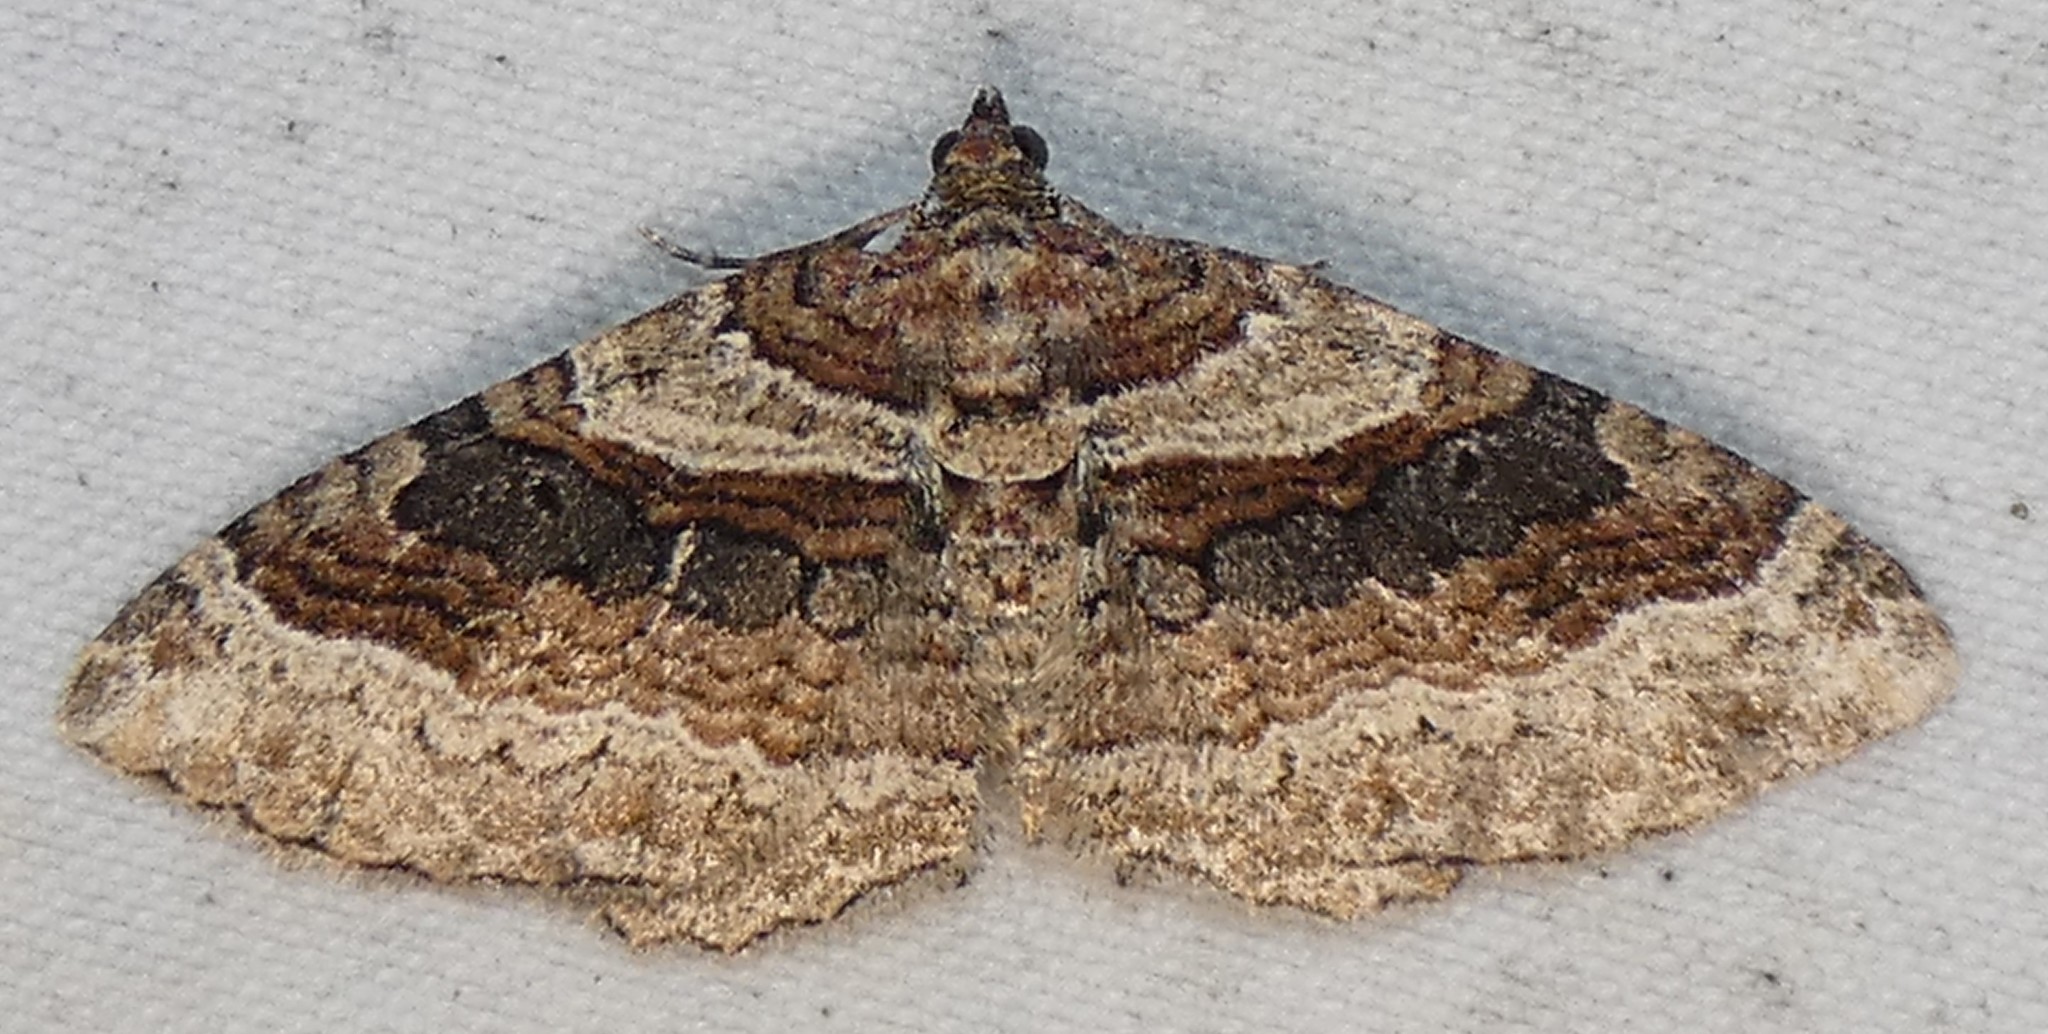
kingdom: Animalia
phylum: Arthropoda
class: Insecta
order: Lepidoptera
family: Geometridae
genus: Costaconvexa
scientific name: Costaconvexa centrostrigaria
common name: Bent-line carpet
